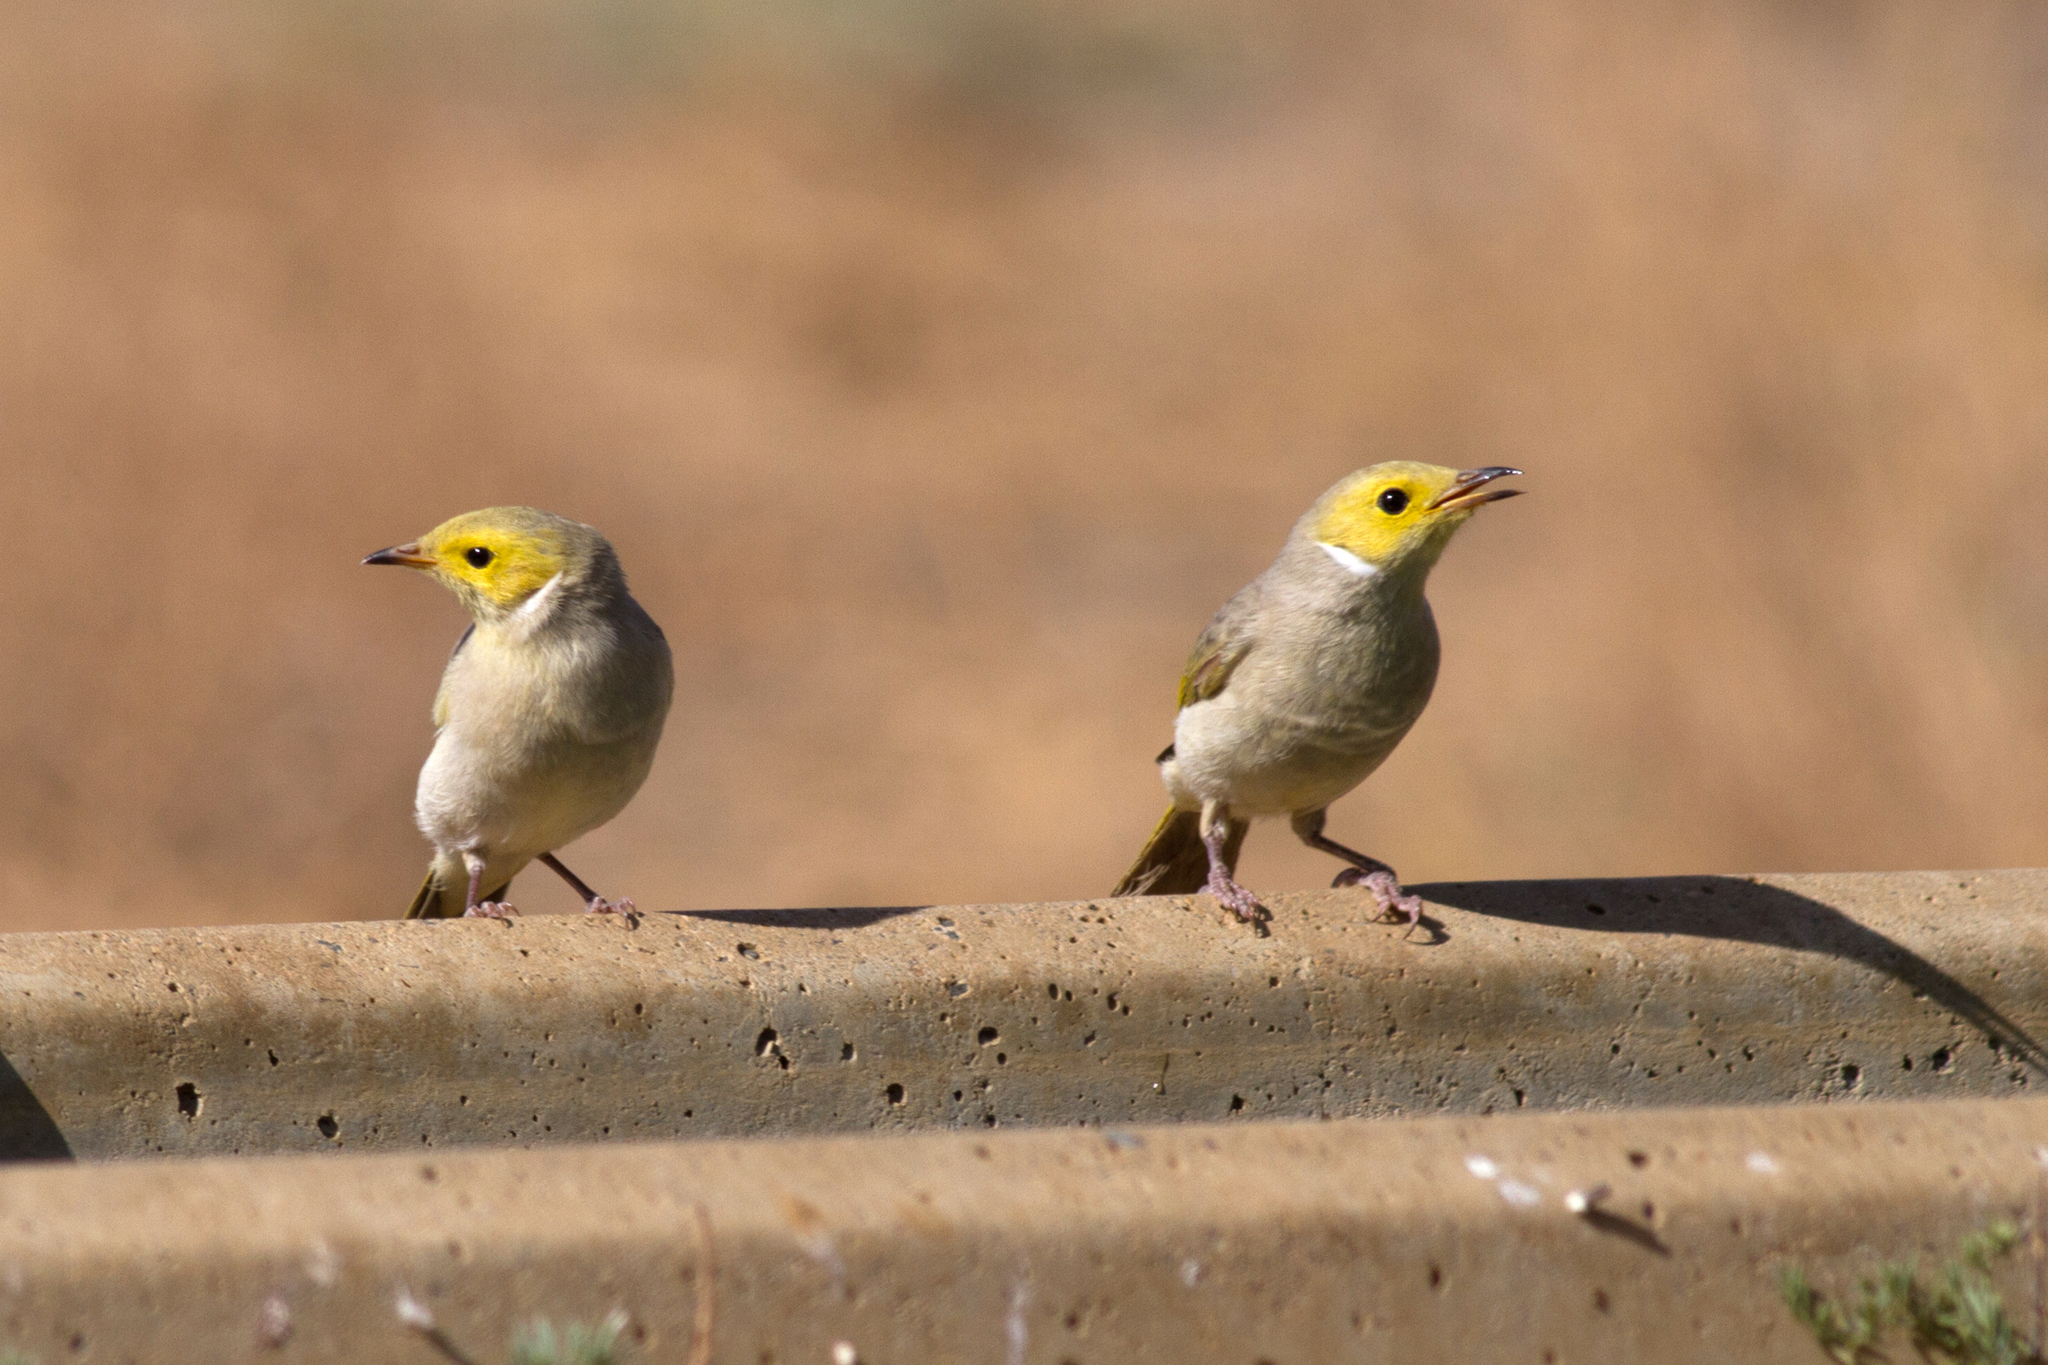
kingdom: Animalia
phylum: Chordata
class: Aves
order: Passeriformes
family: Meliphagidae
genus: Ptilotula
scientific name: Ptilotula penicillata
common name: White-plumed honeyeater
